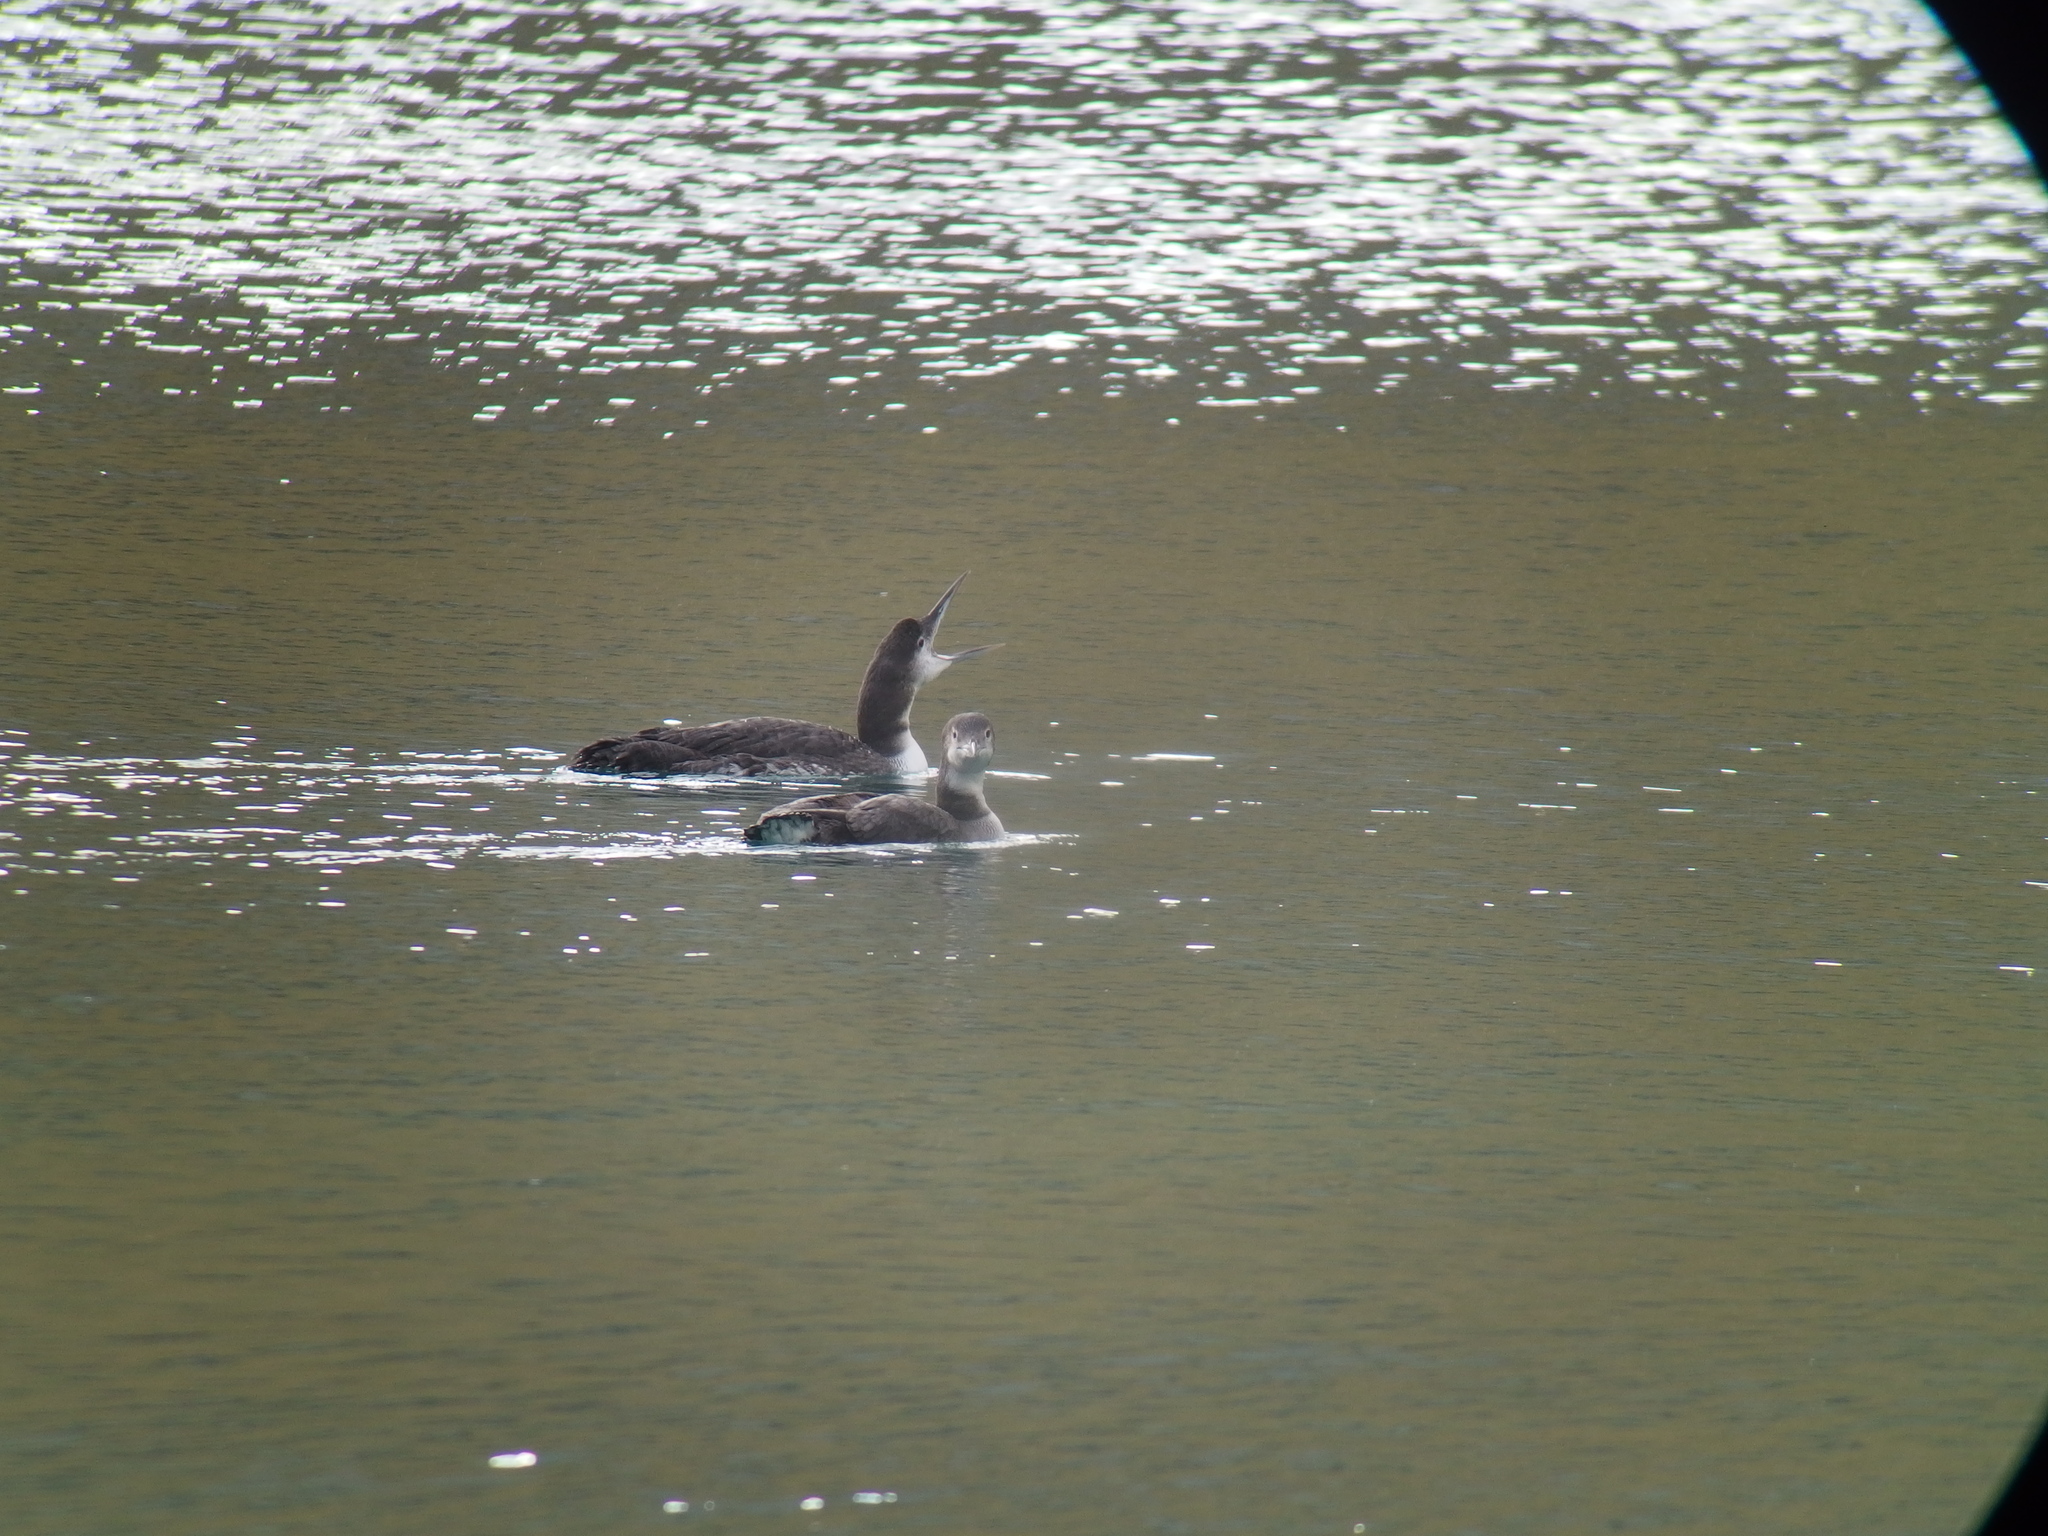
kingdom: Animalia
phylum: Chordata
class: Aves
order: Gaviiformes
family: Gaviidae
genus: Gavia
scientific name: Gavia immer
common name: Common loon
